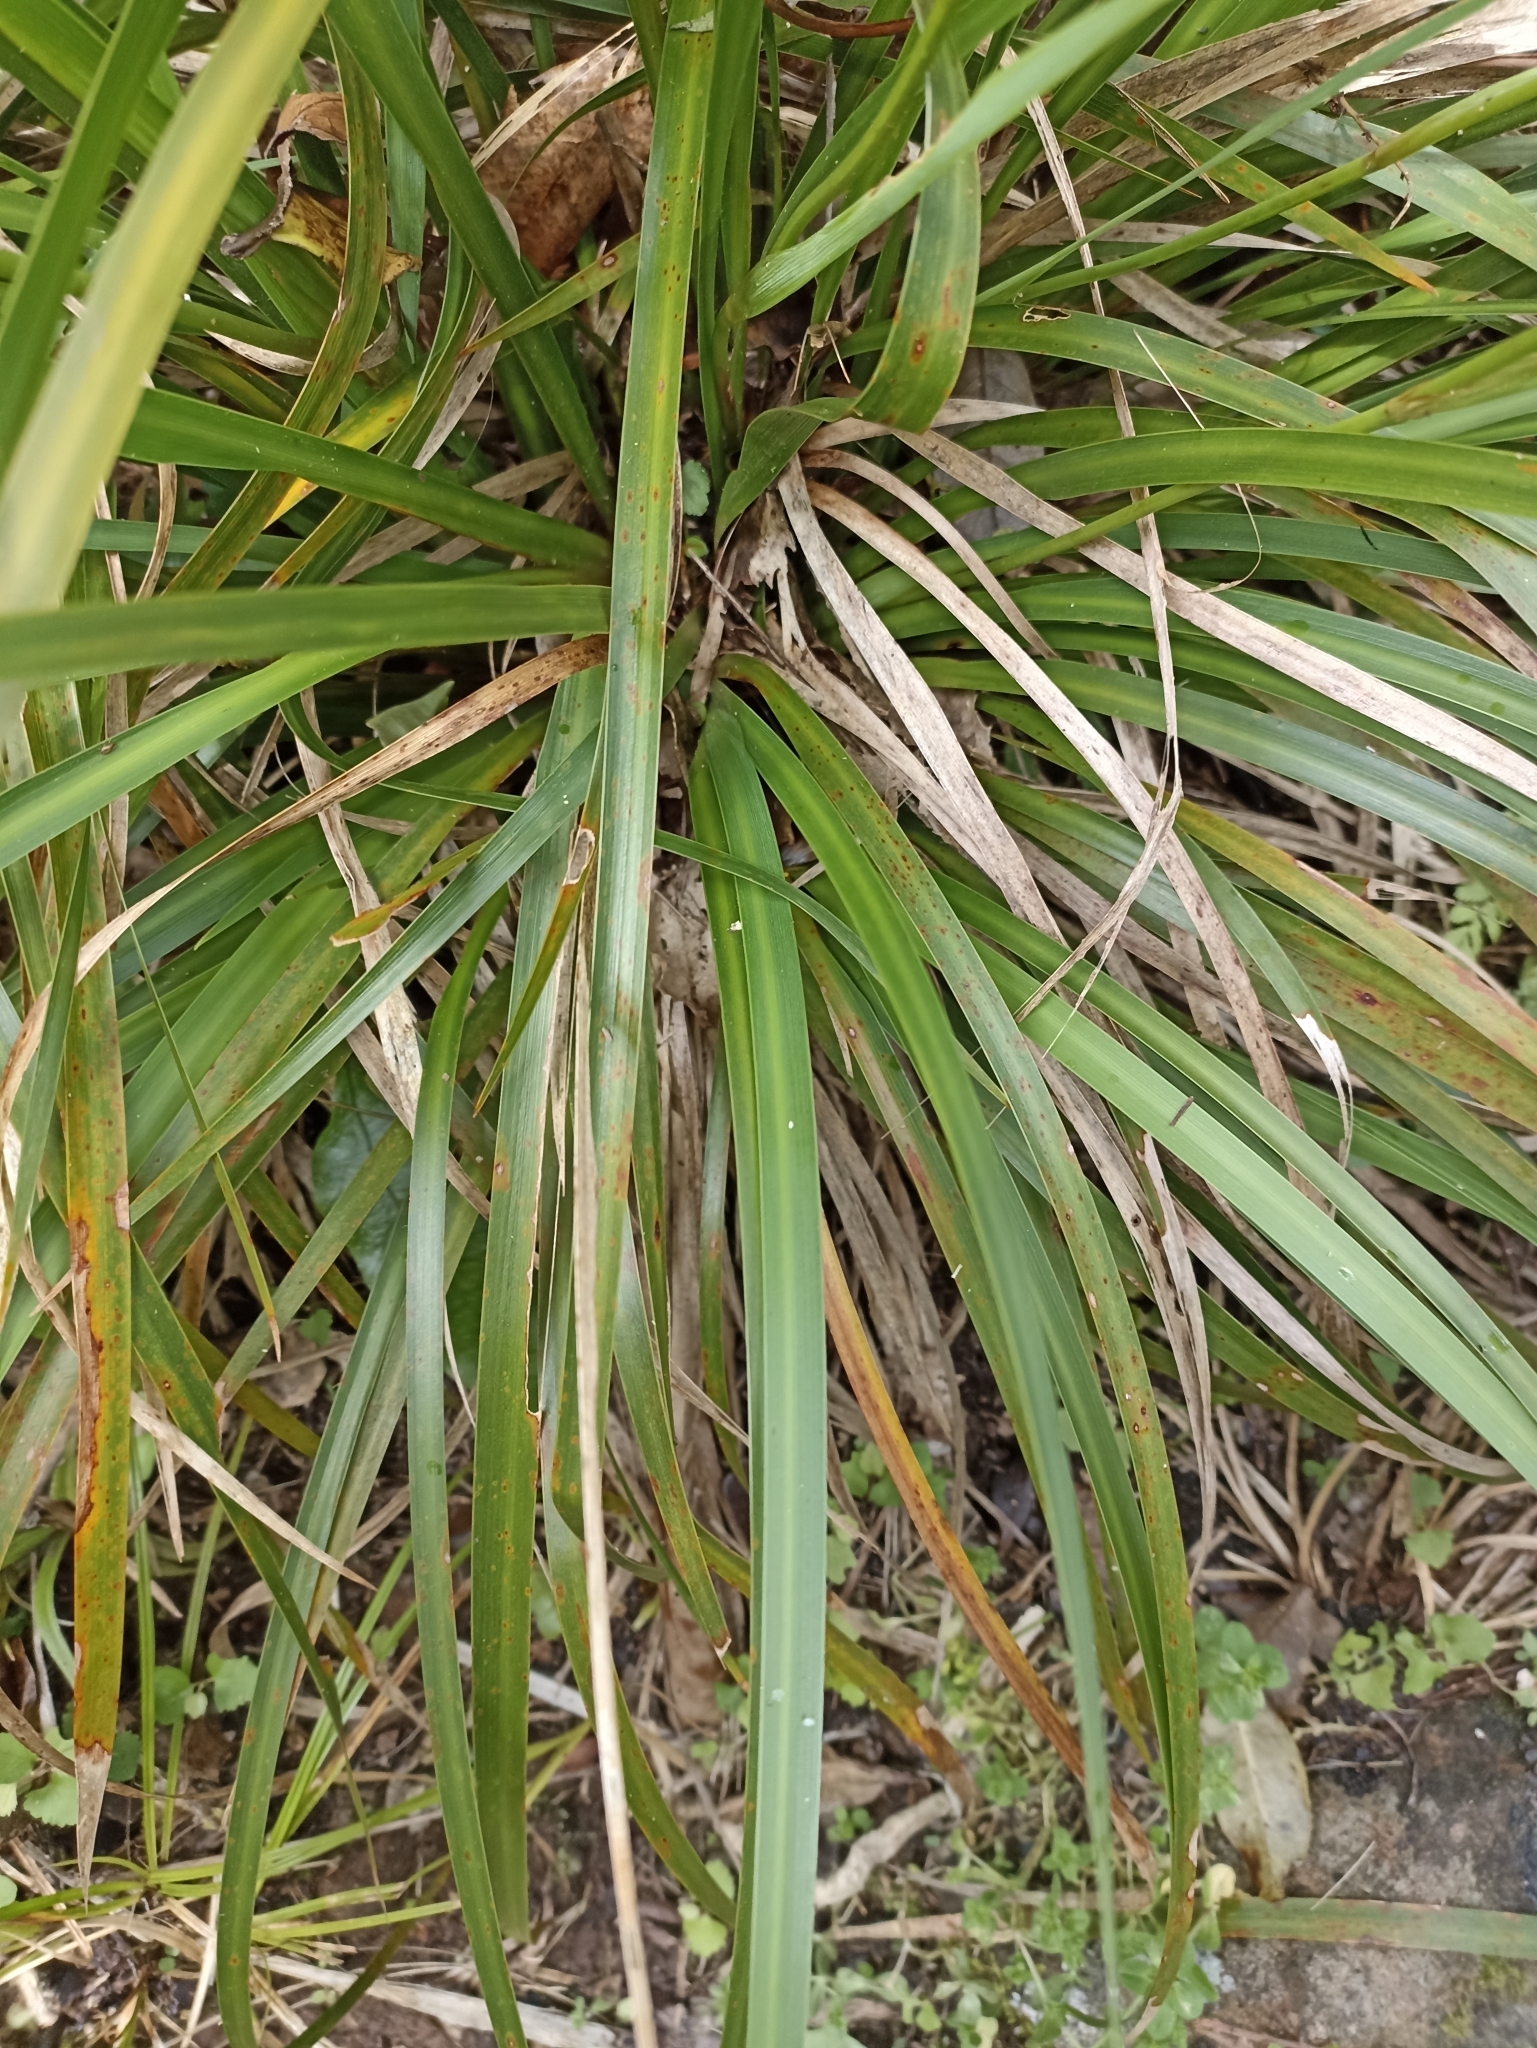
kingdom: Plantae
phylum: Tracheophyta
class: Liliopsida
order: Asparagales
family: Iridaceae
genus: Libertia
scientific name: Libertia grandiflora
